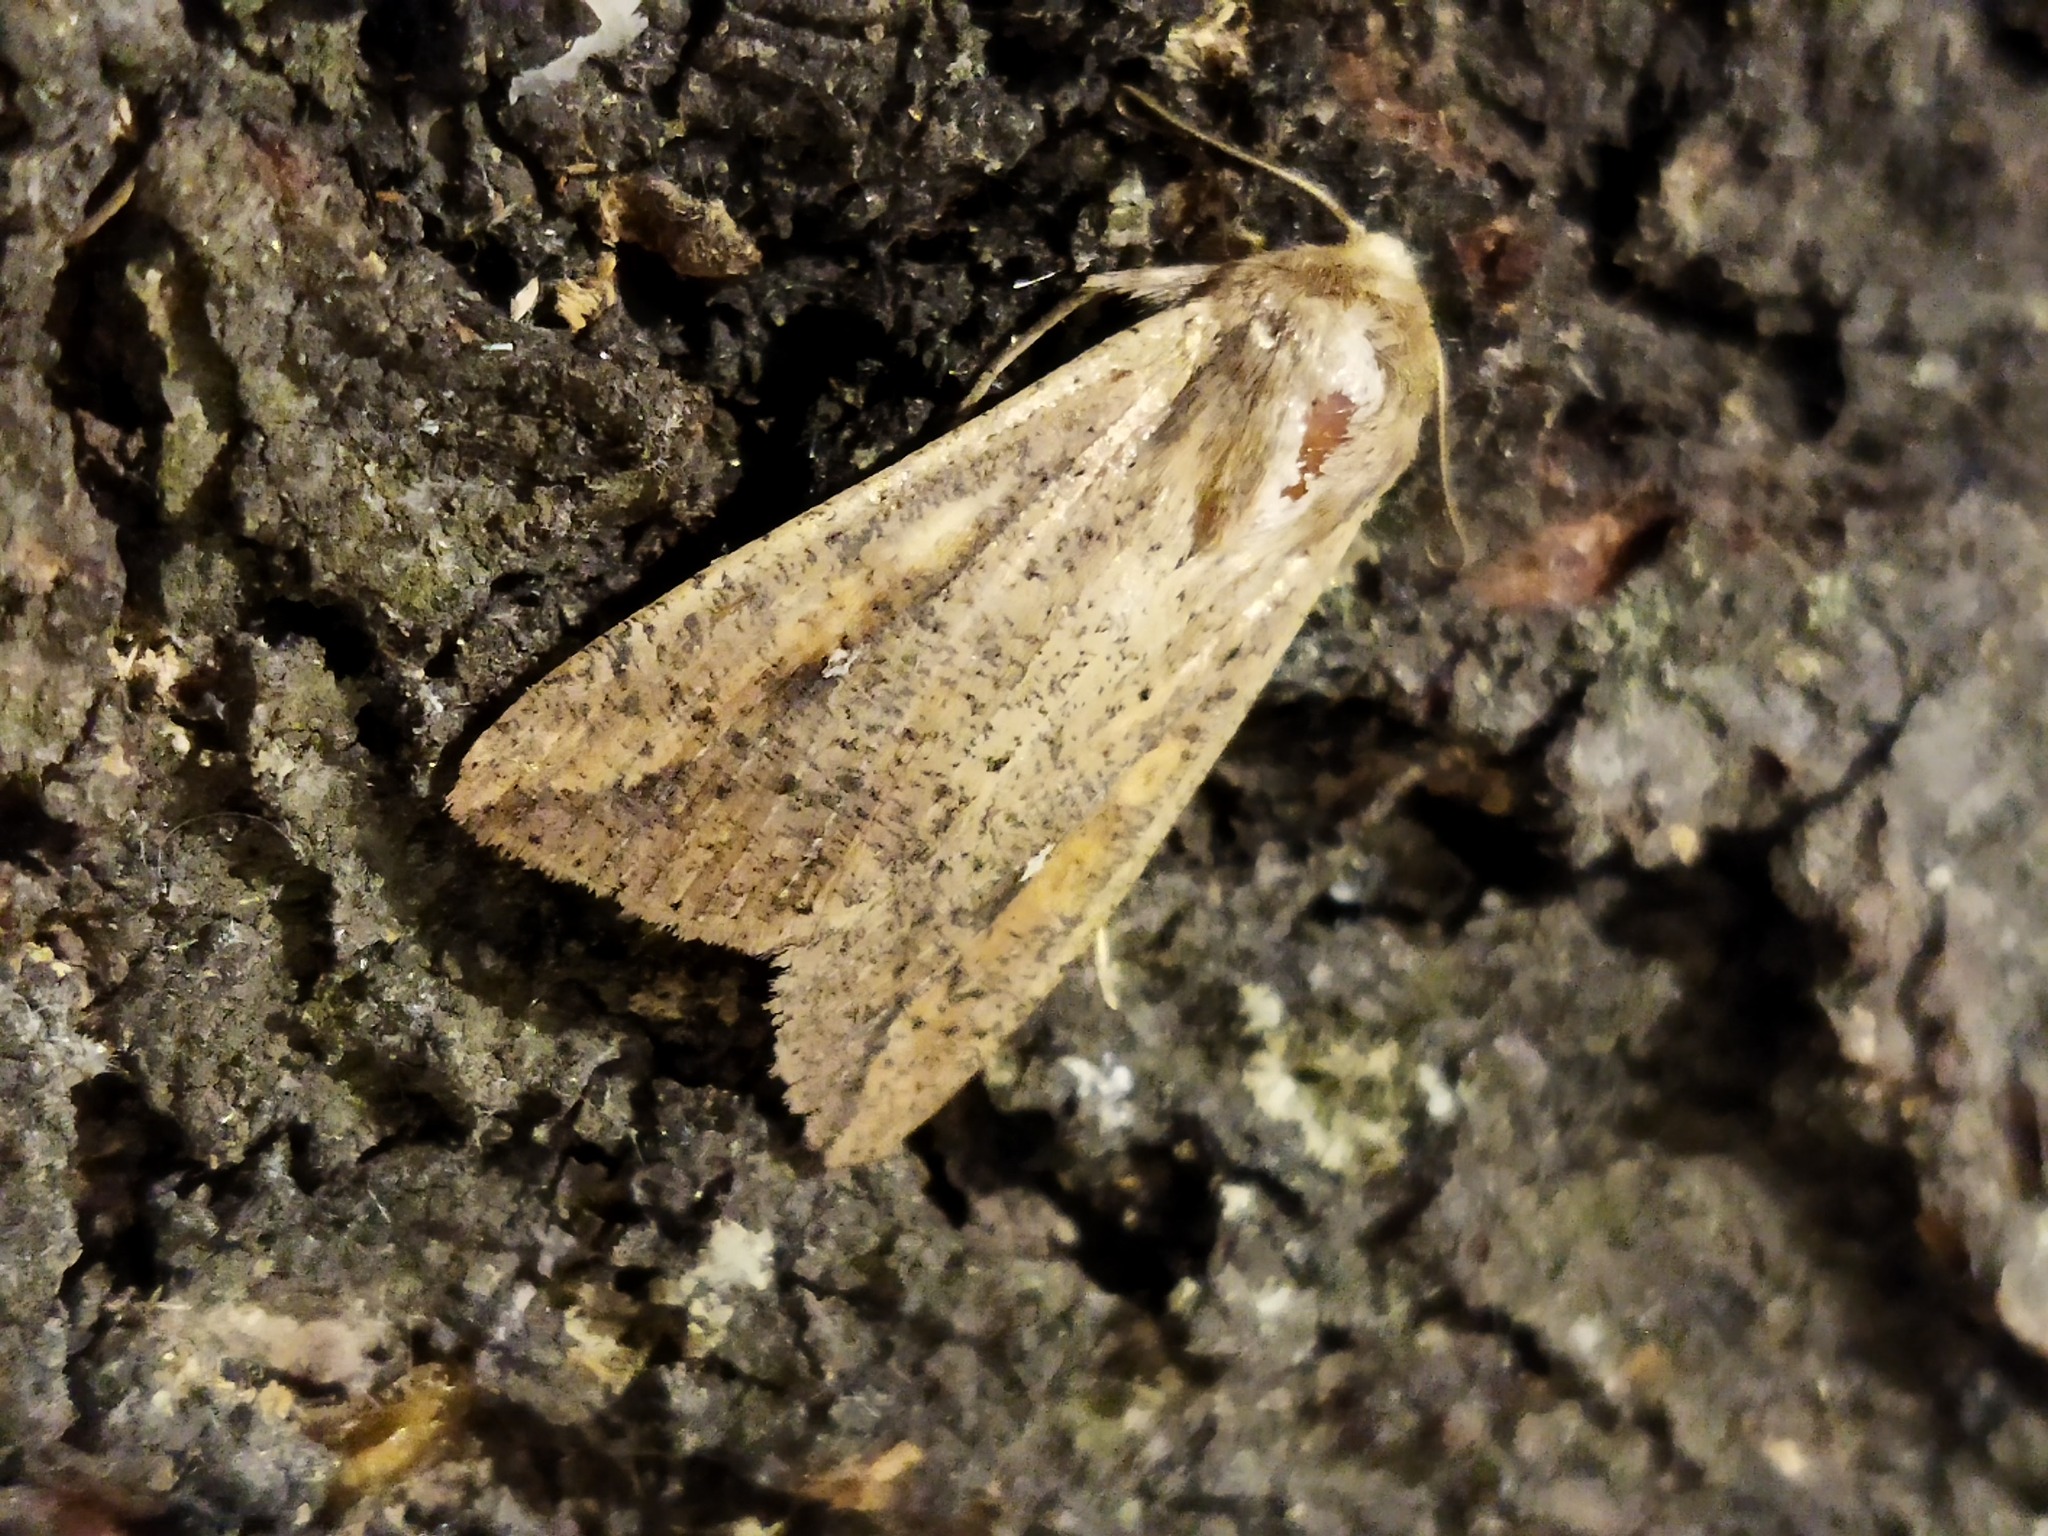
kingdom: Animalia
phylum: Arthropoda
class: Insecta
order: Lepidoptera
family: Noctuidae
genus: Mythimna
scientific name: Mythimna unipuncta
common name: White-speck
